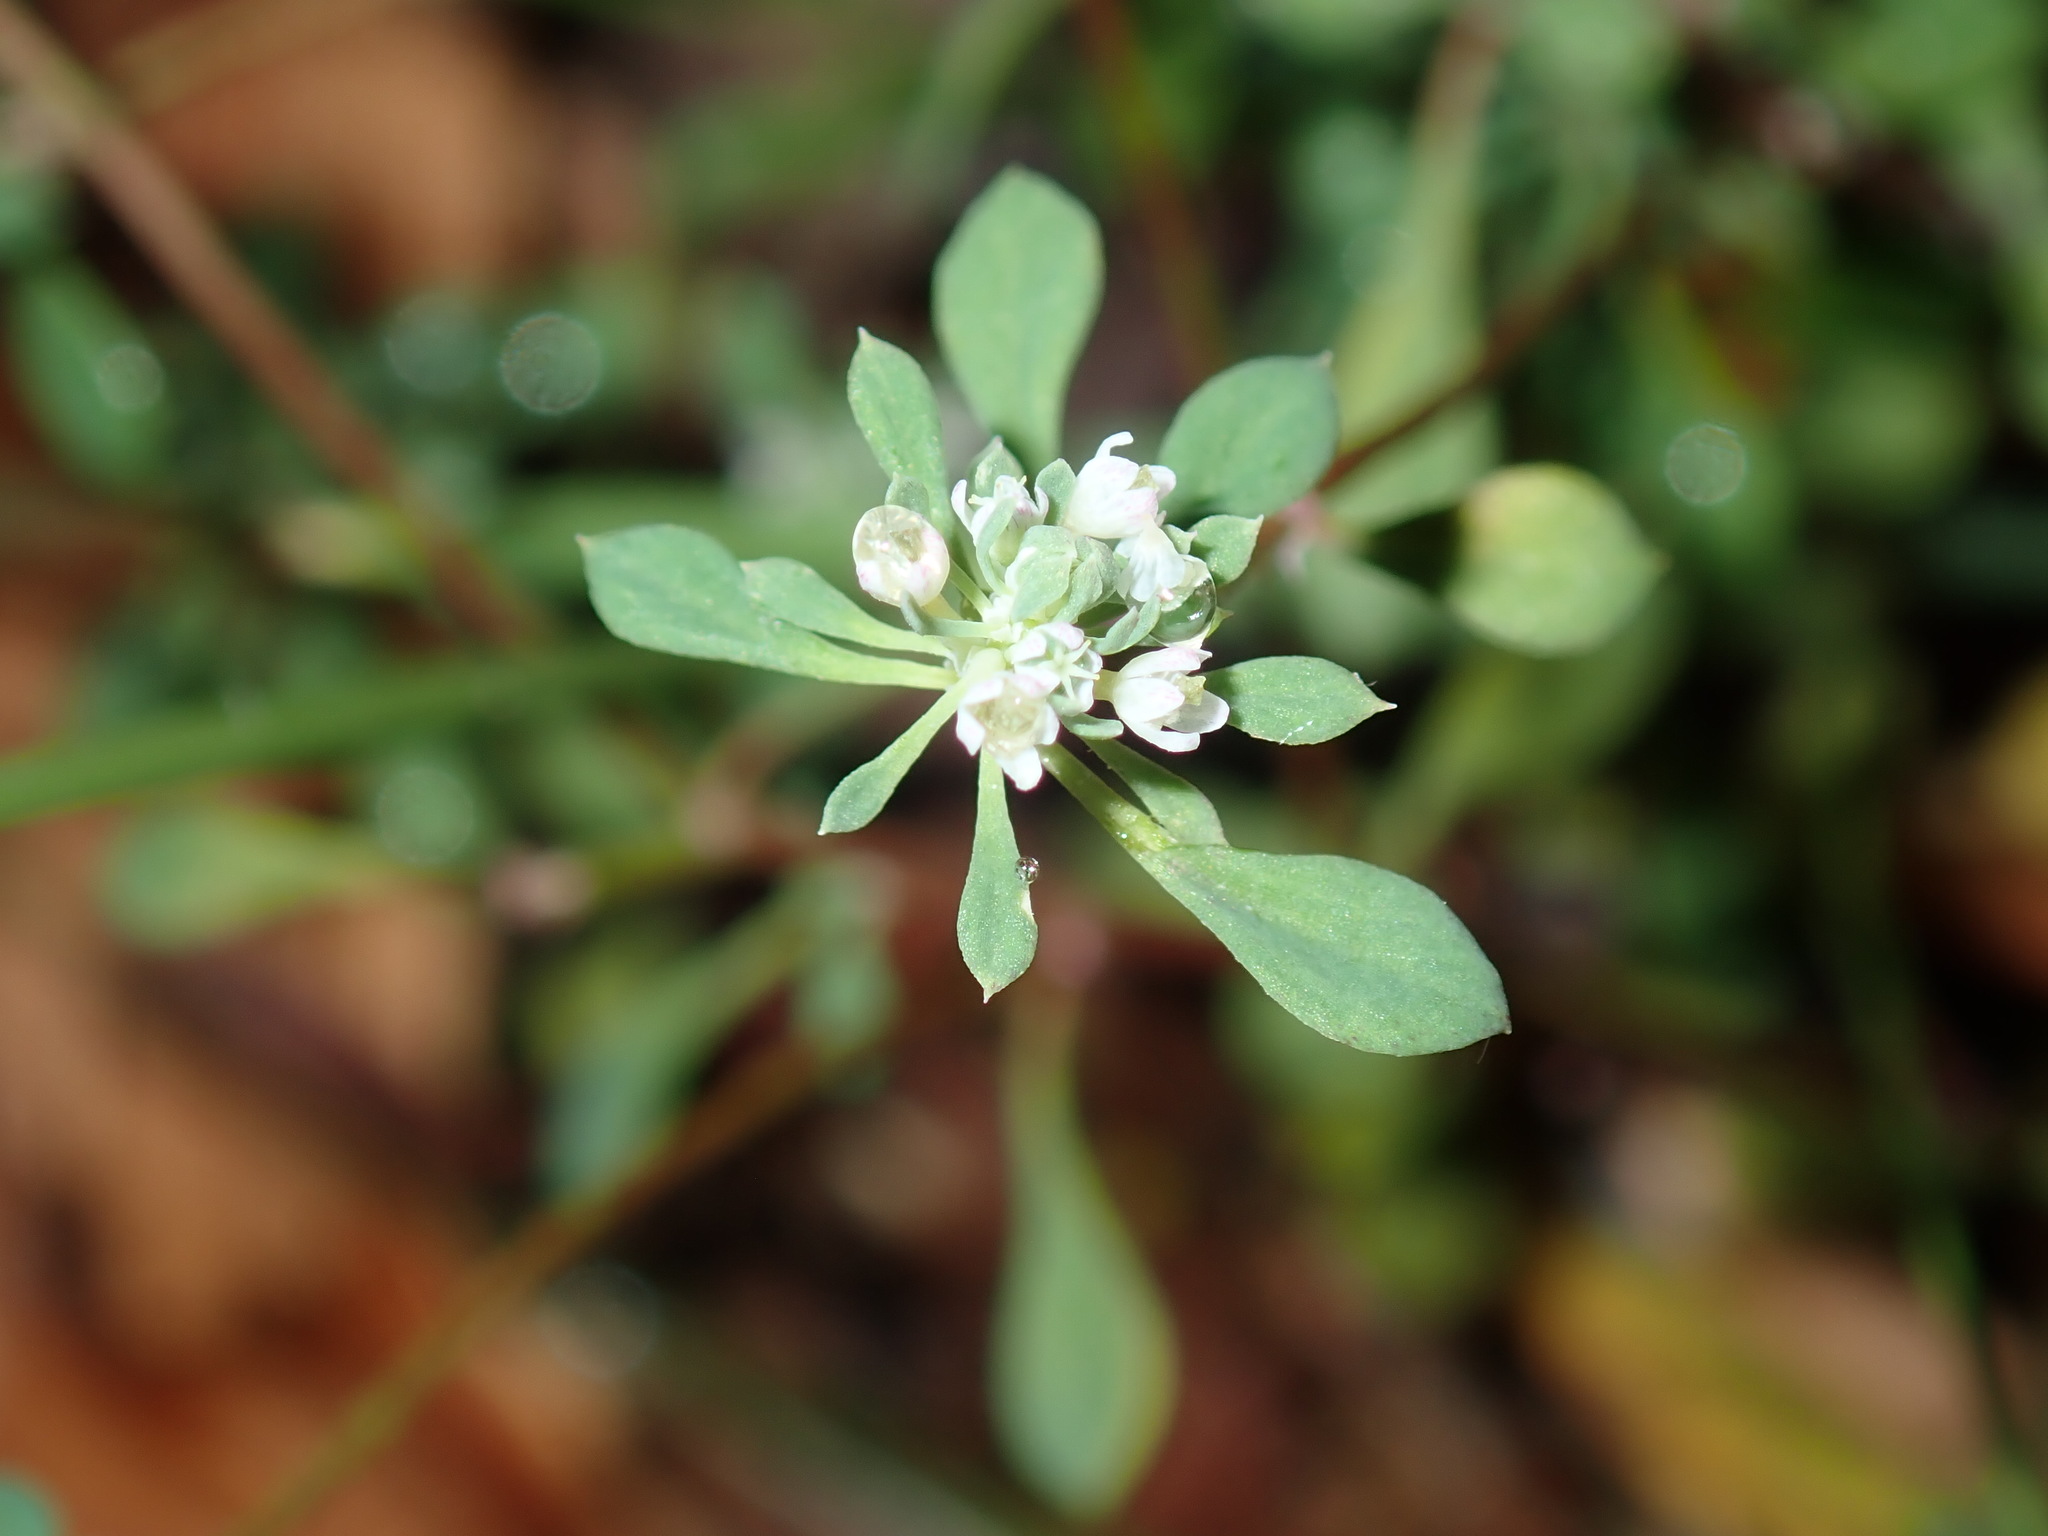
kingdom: Plantae
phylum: Tracheophyta
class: Magnoliopsida
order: Malpighiales
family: Phyllanthaceae
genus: Poranthera
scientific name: Poranthera microphylla
